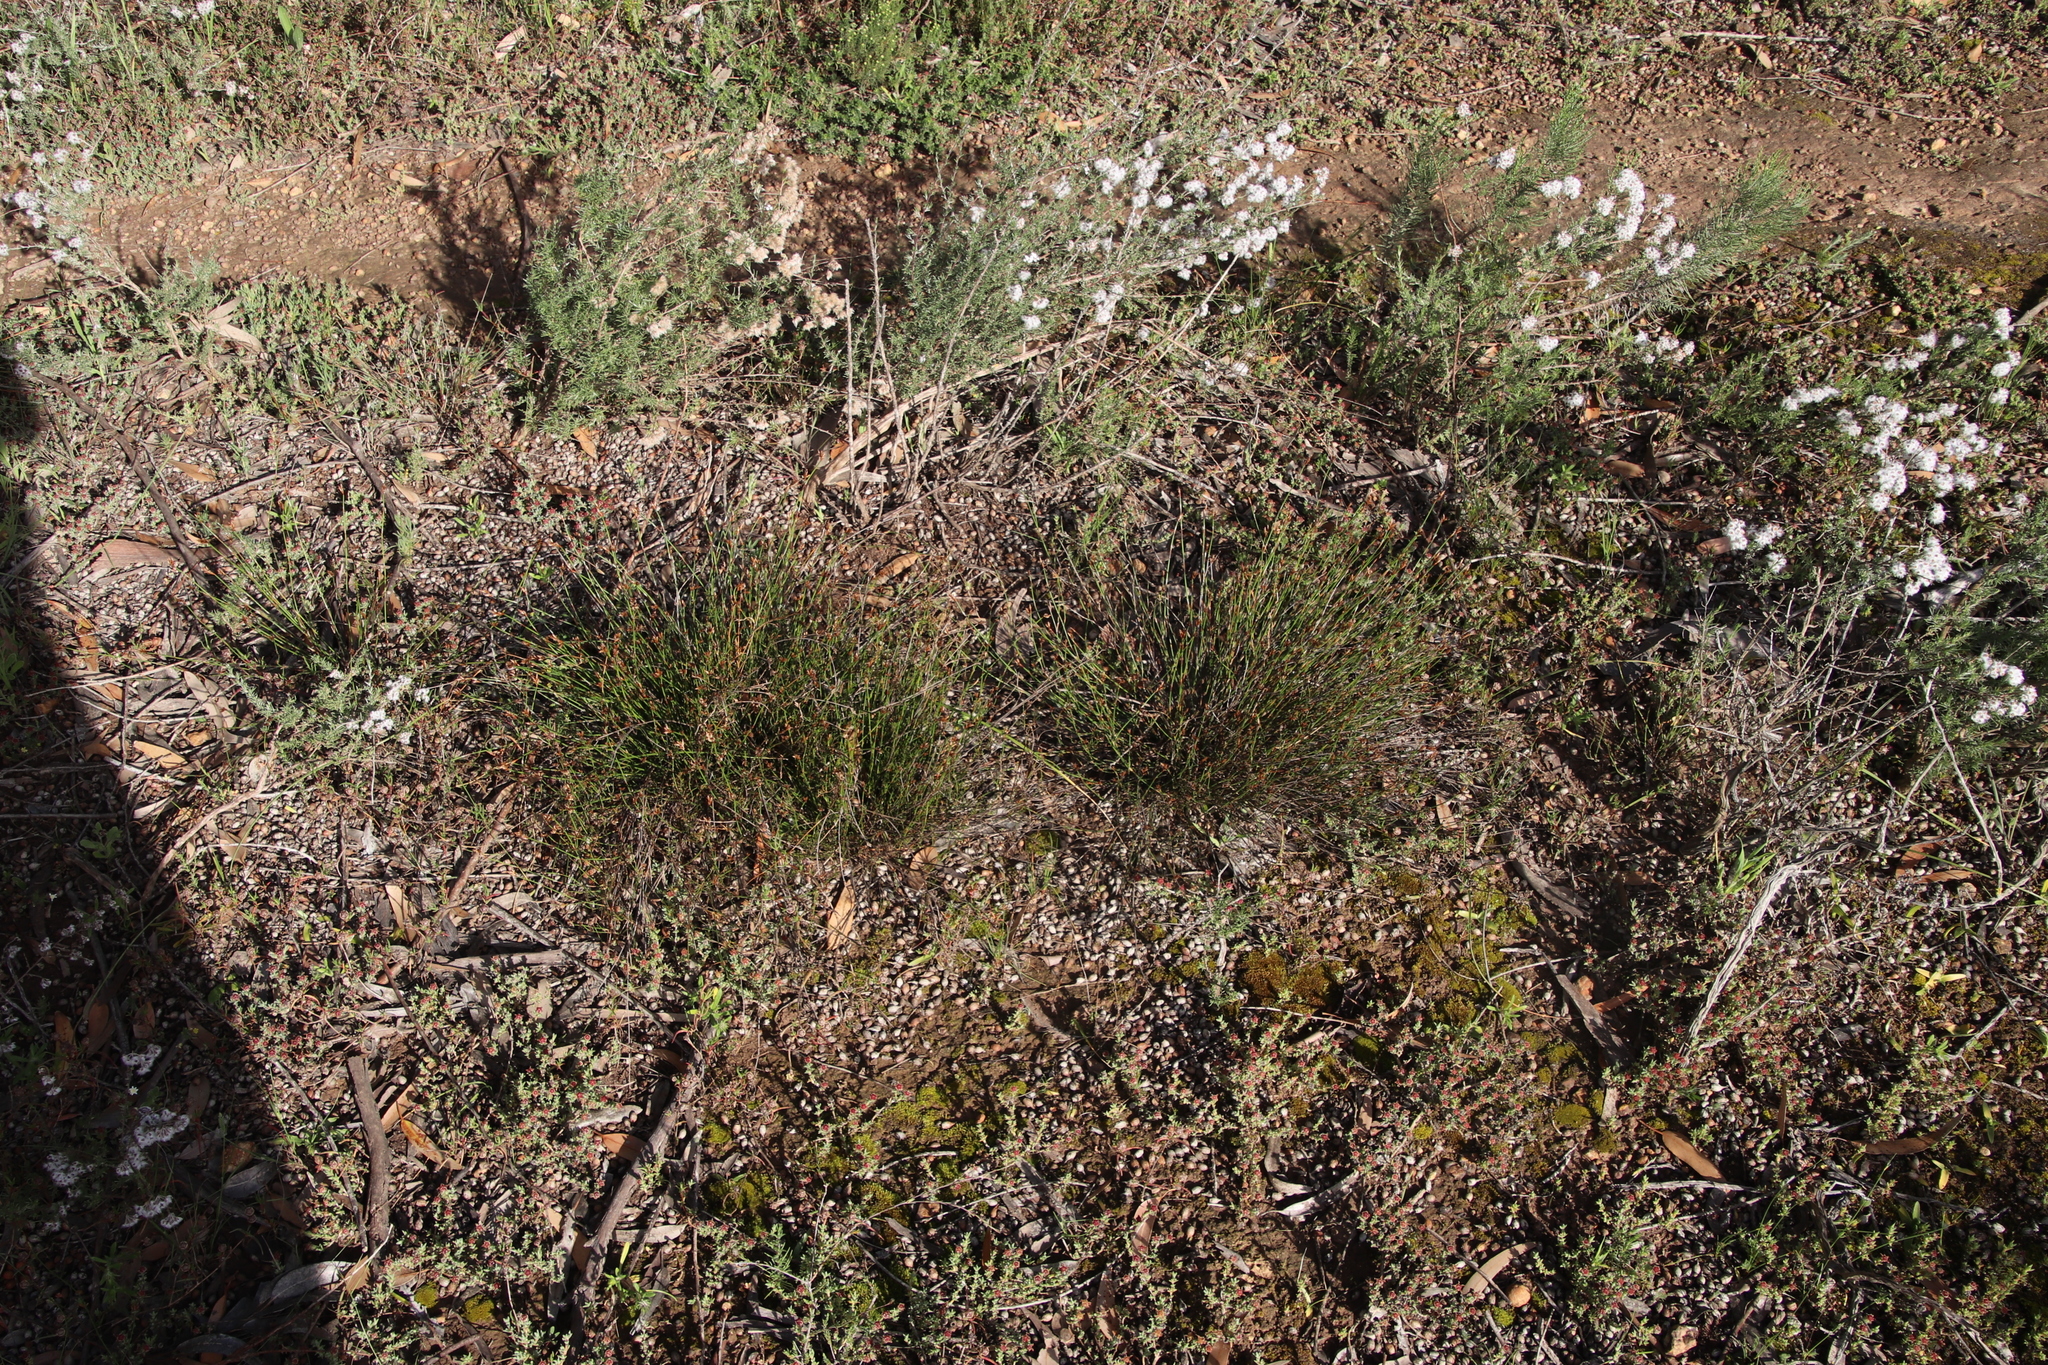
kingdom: Plantae
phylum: Tracheophyta
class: Liliopsida
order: Poales
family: Restionaceae
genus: Restio
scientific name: Restio capensis
